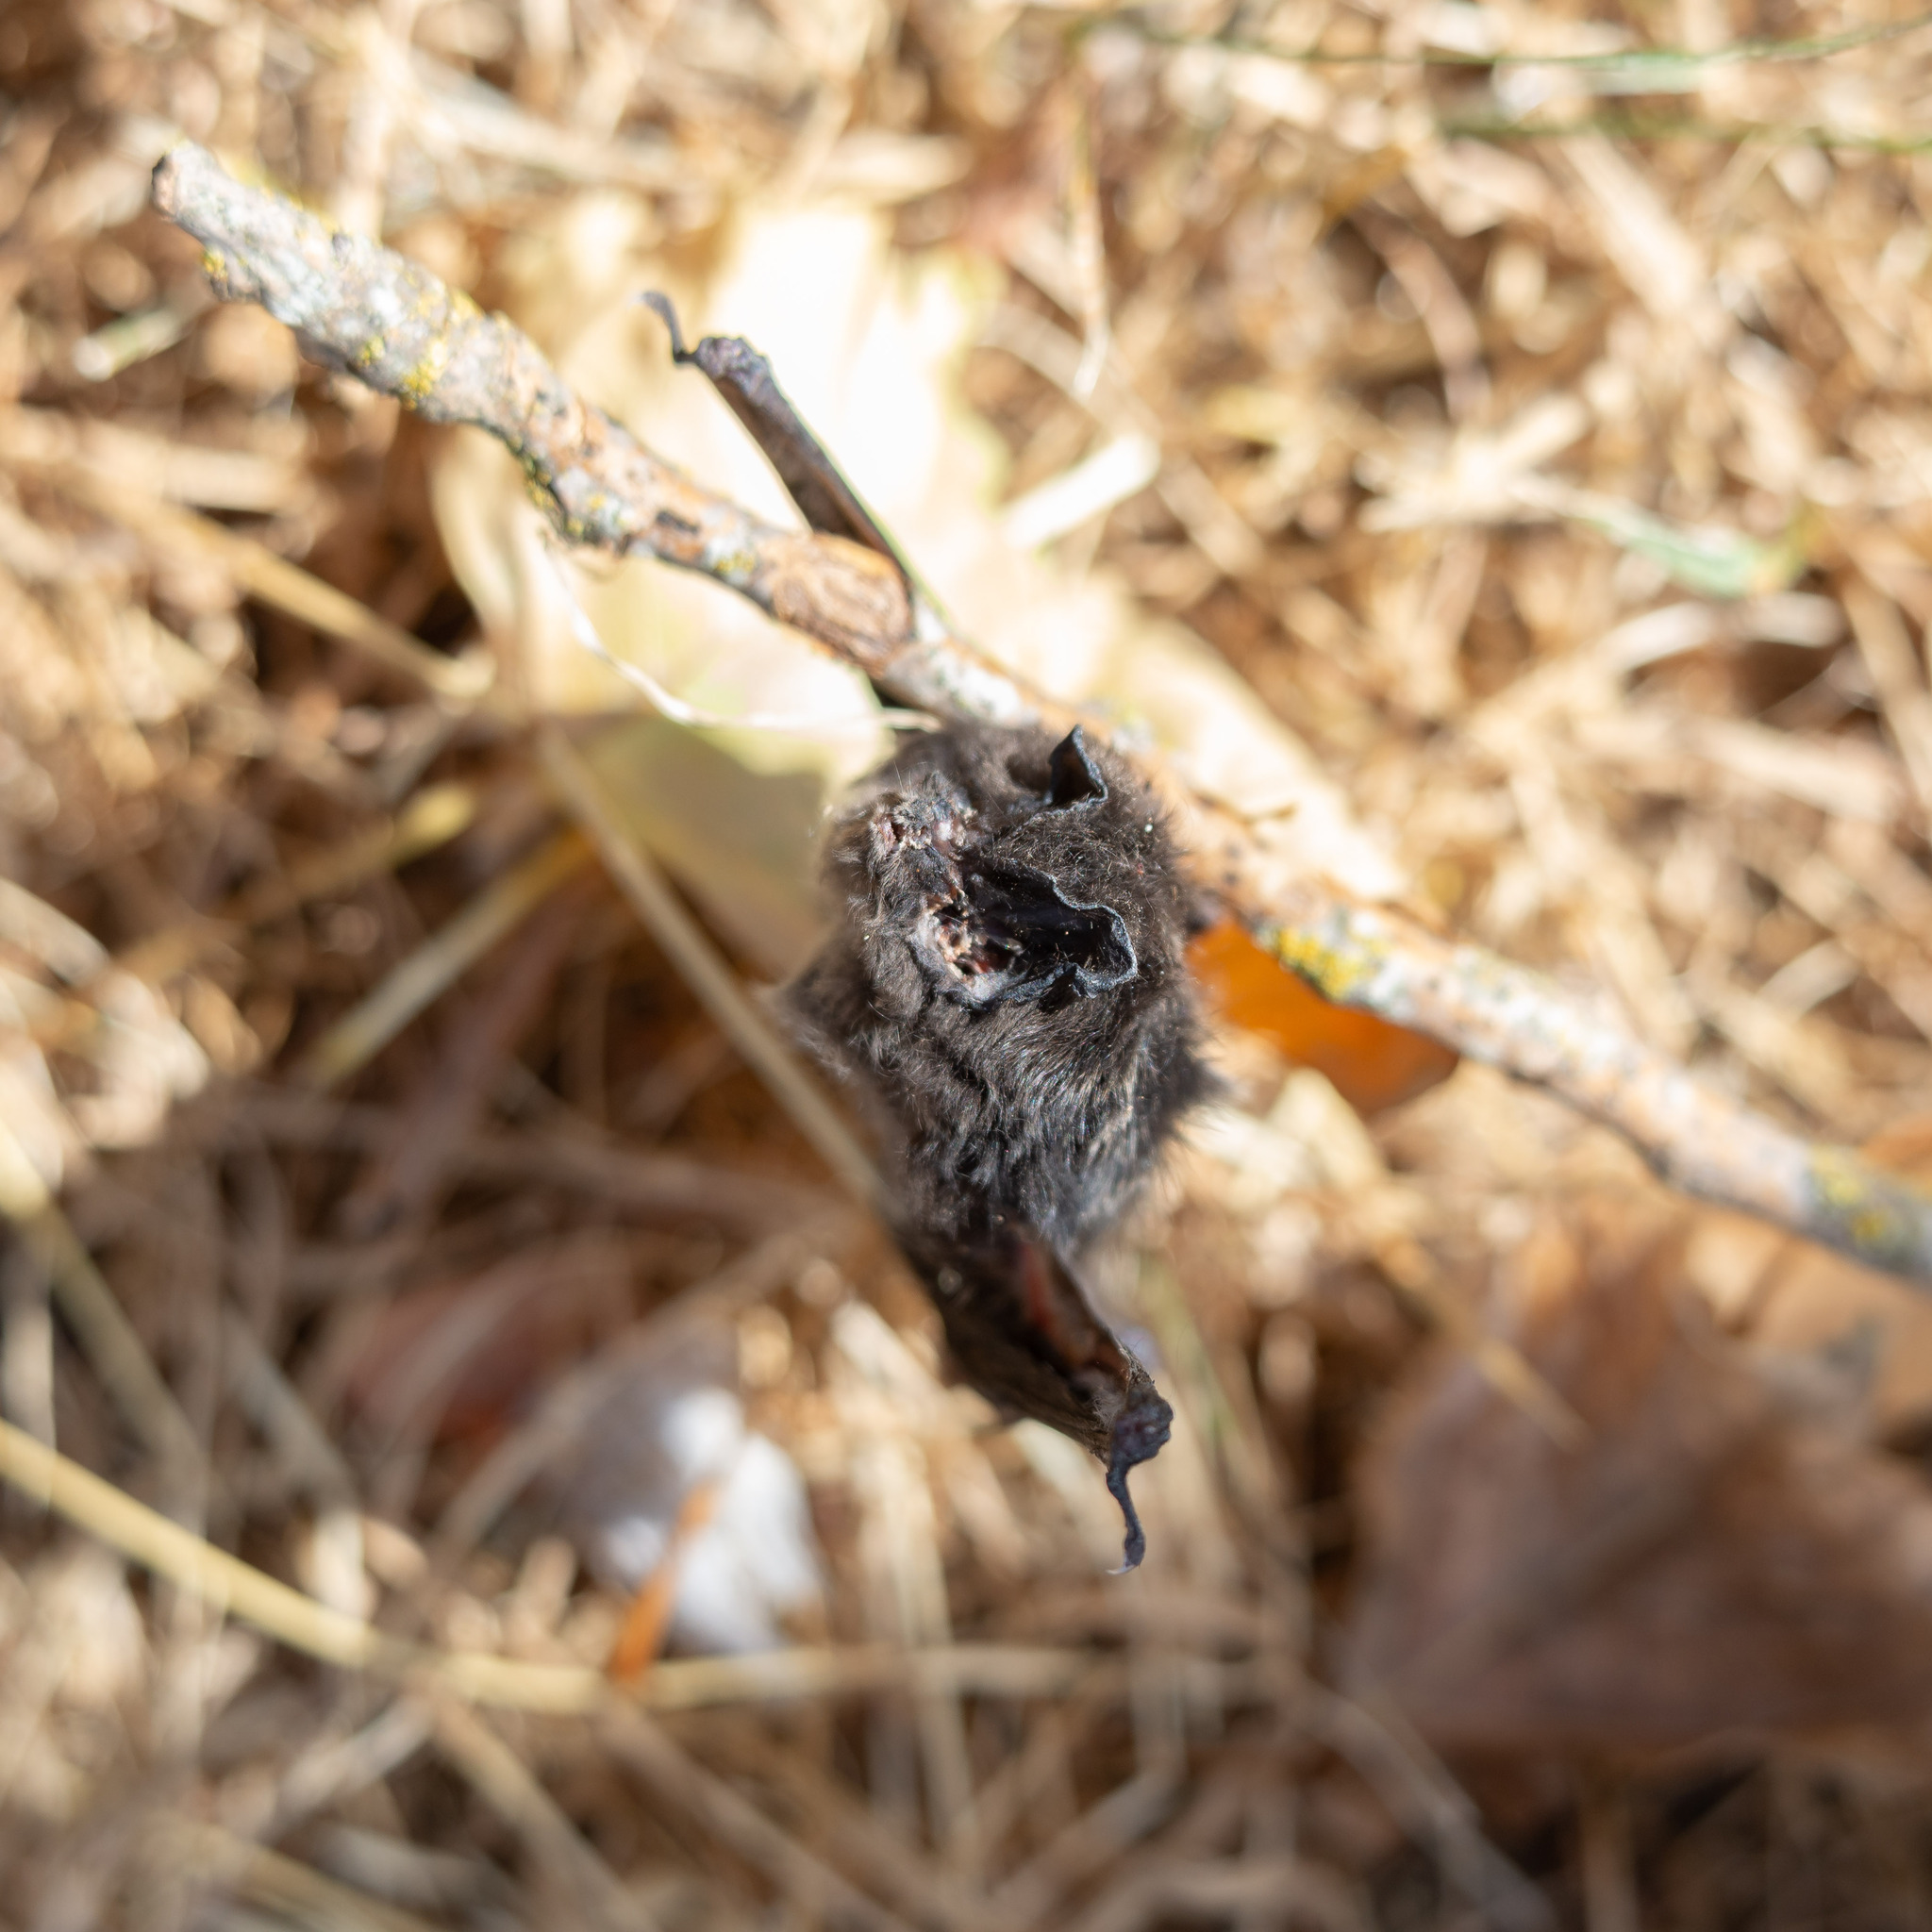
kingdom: Animalia
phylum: Chordata
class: Mammalia
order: Chiroptera
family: Vespertilionidae
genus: Barbastella
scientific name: Barbastella barbastellus
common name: Western barbastelle
